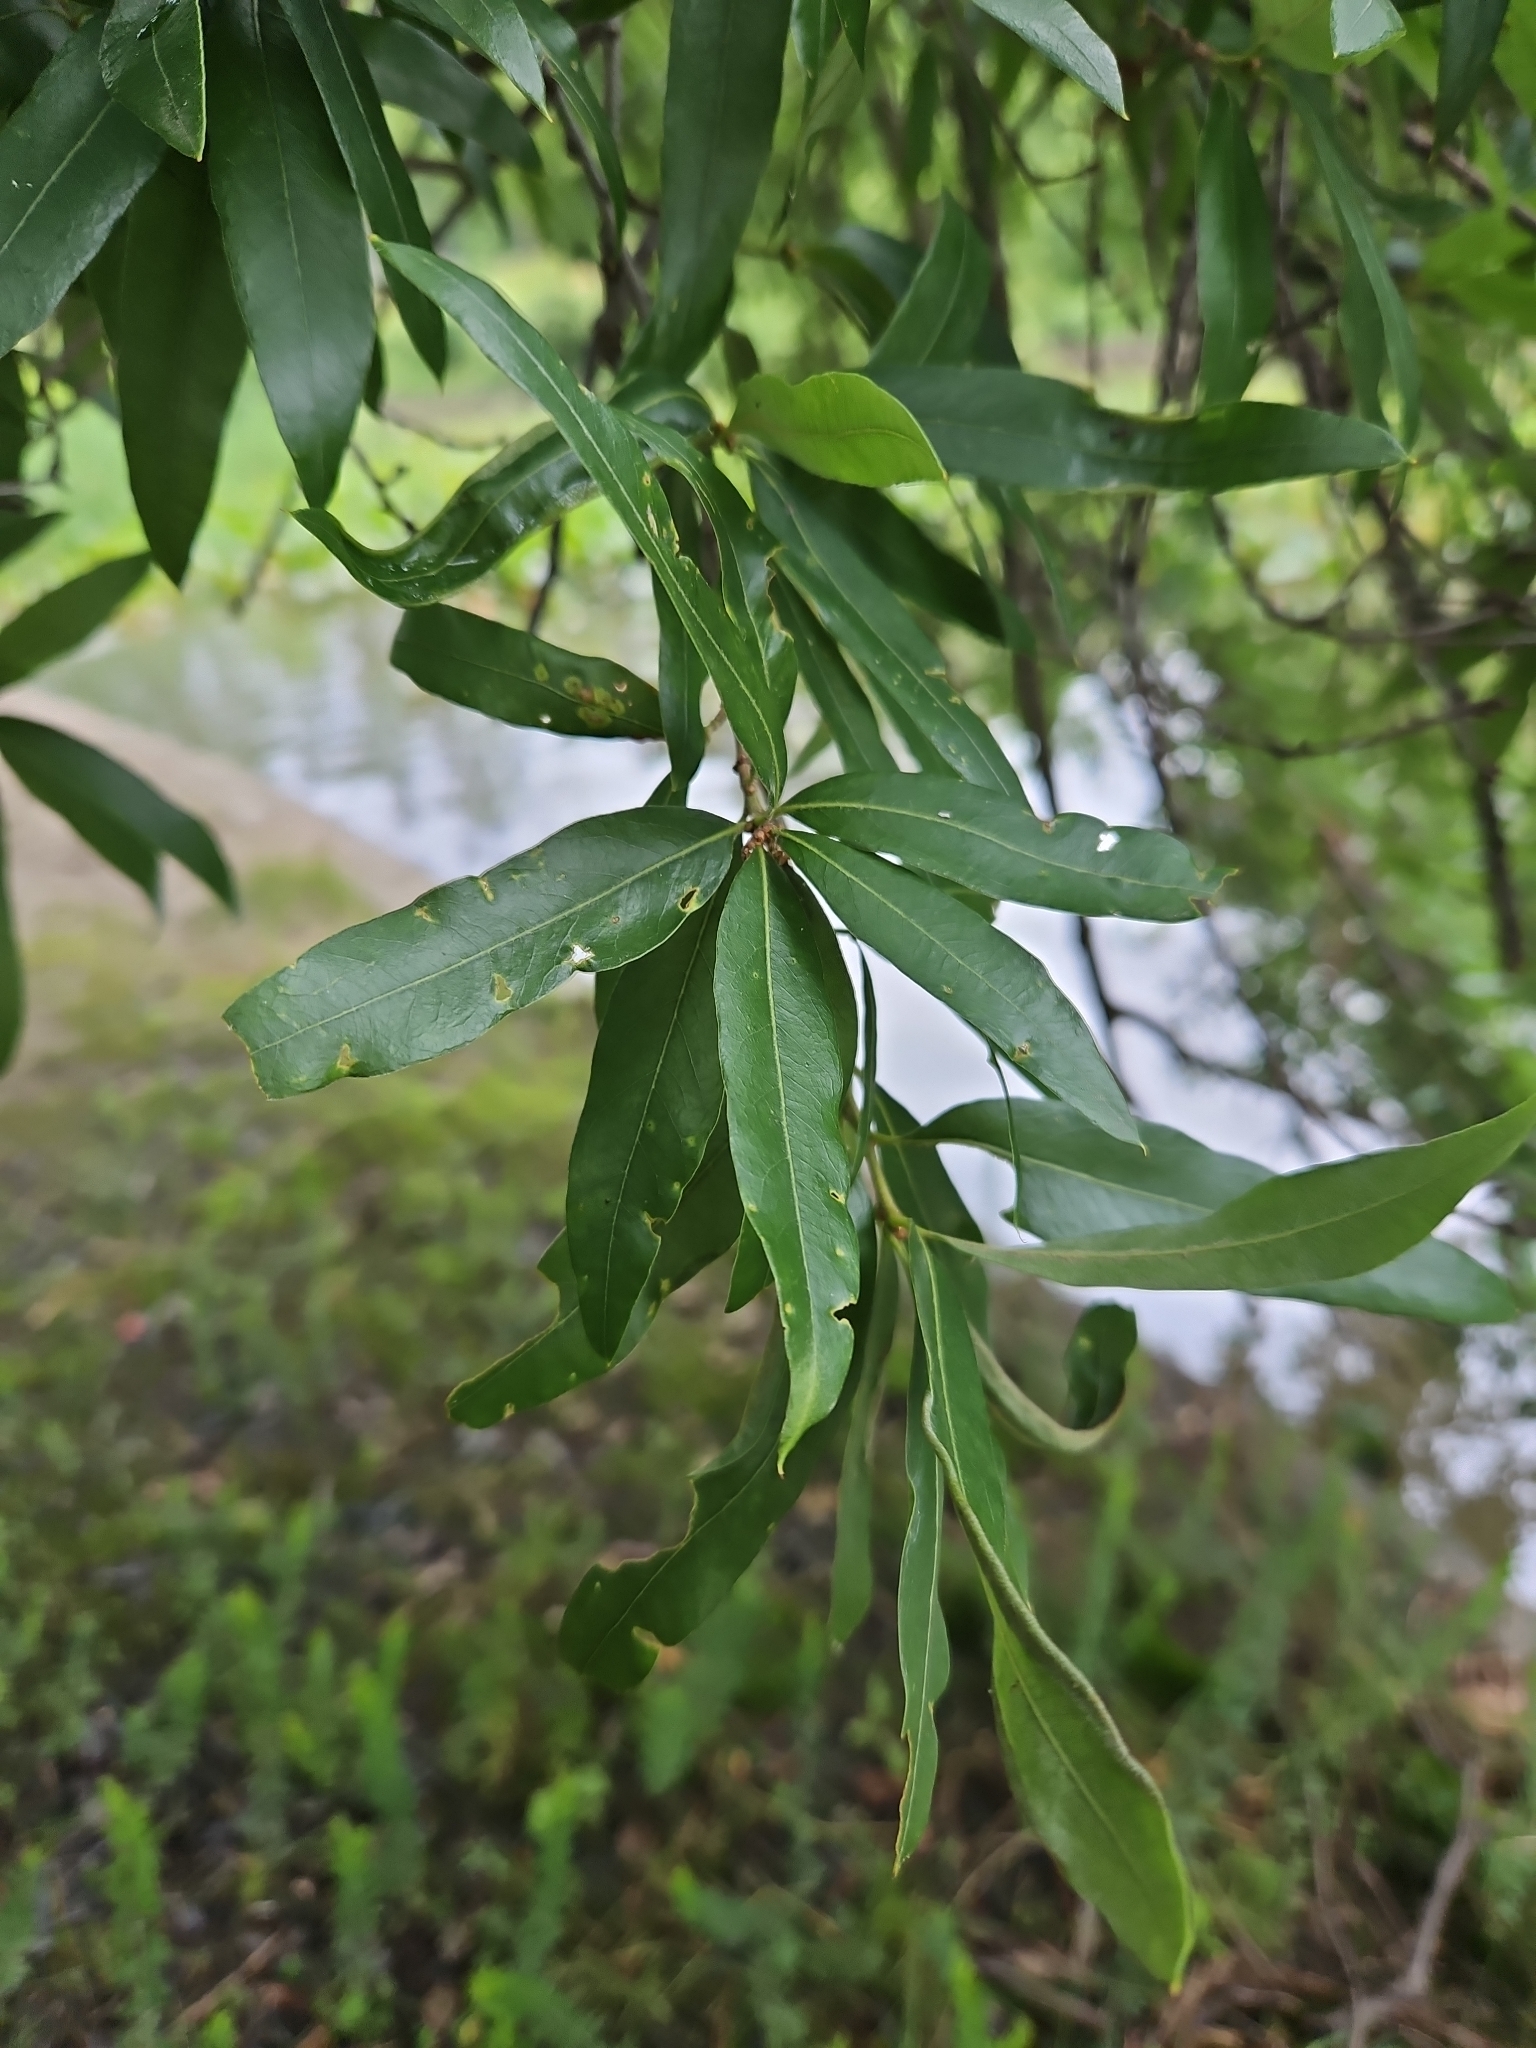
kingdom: Plantae
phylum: Tracheophyta
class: Magnoliopsida
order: Fagales
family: Fagaceae
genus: Quercus
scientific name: Quercus phellos
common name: Willow oak
